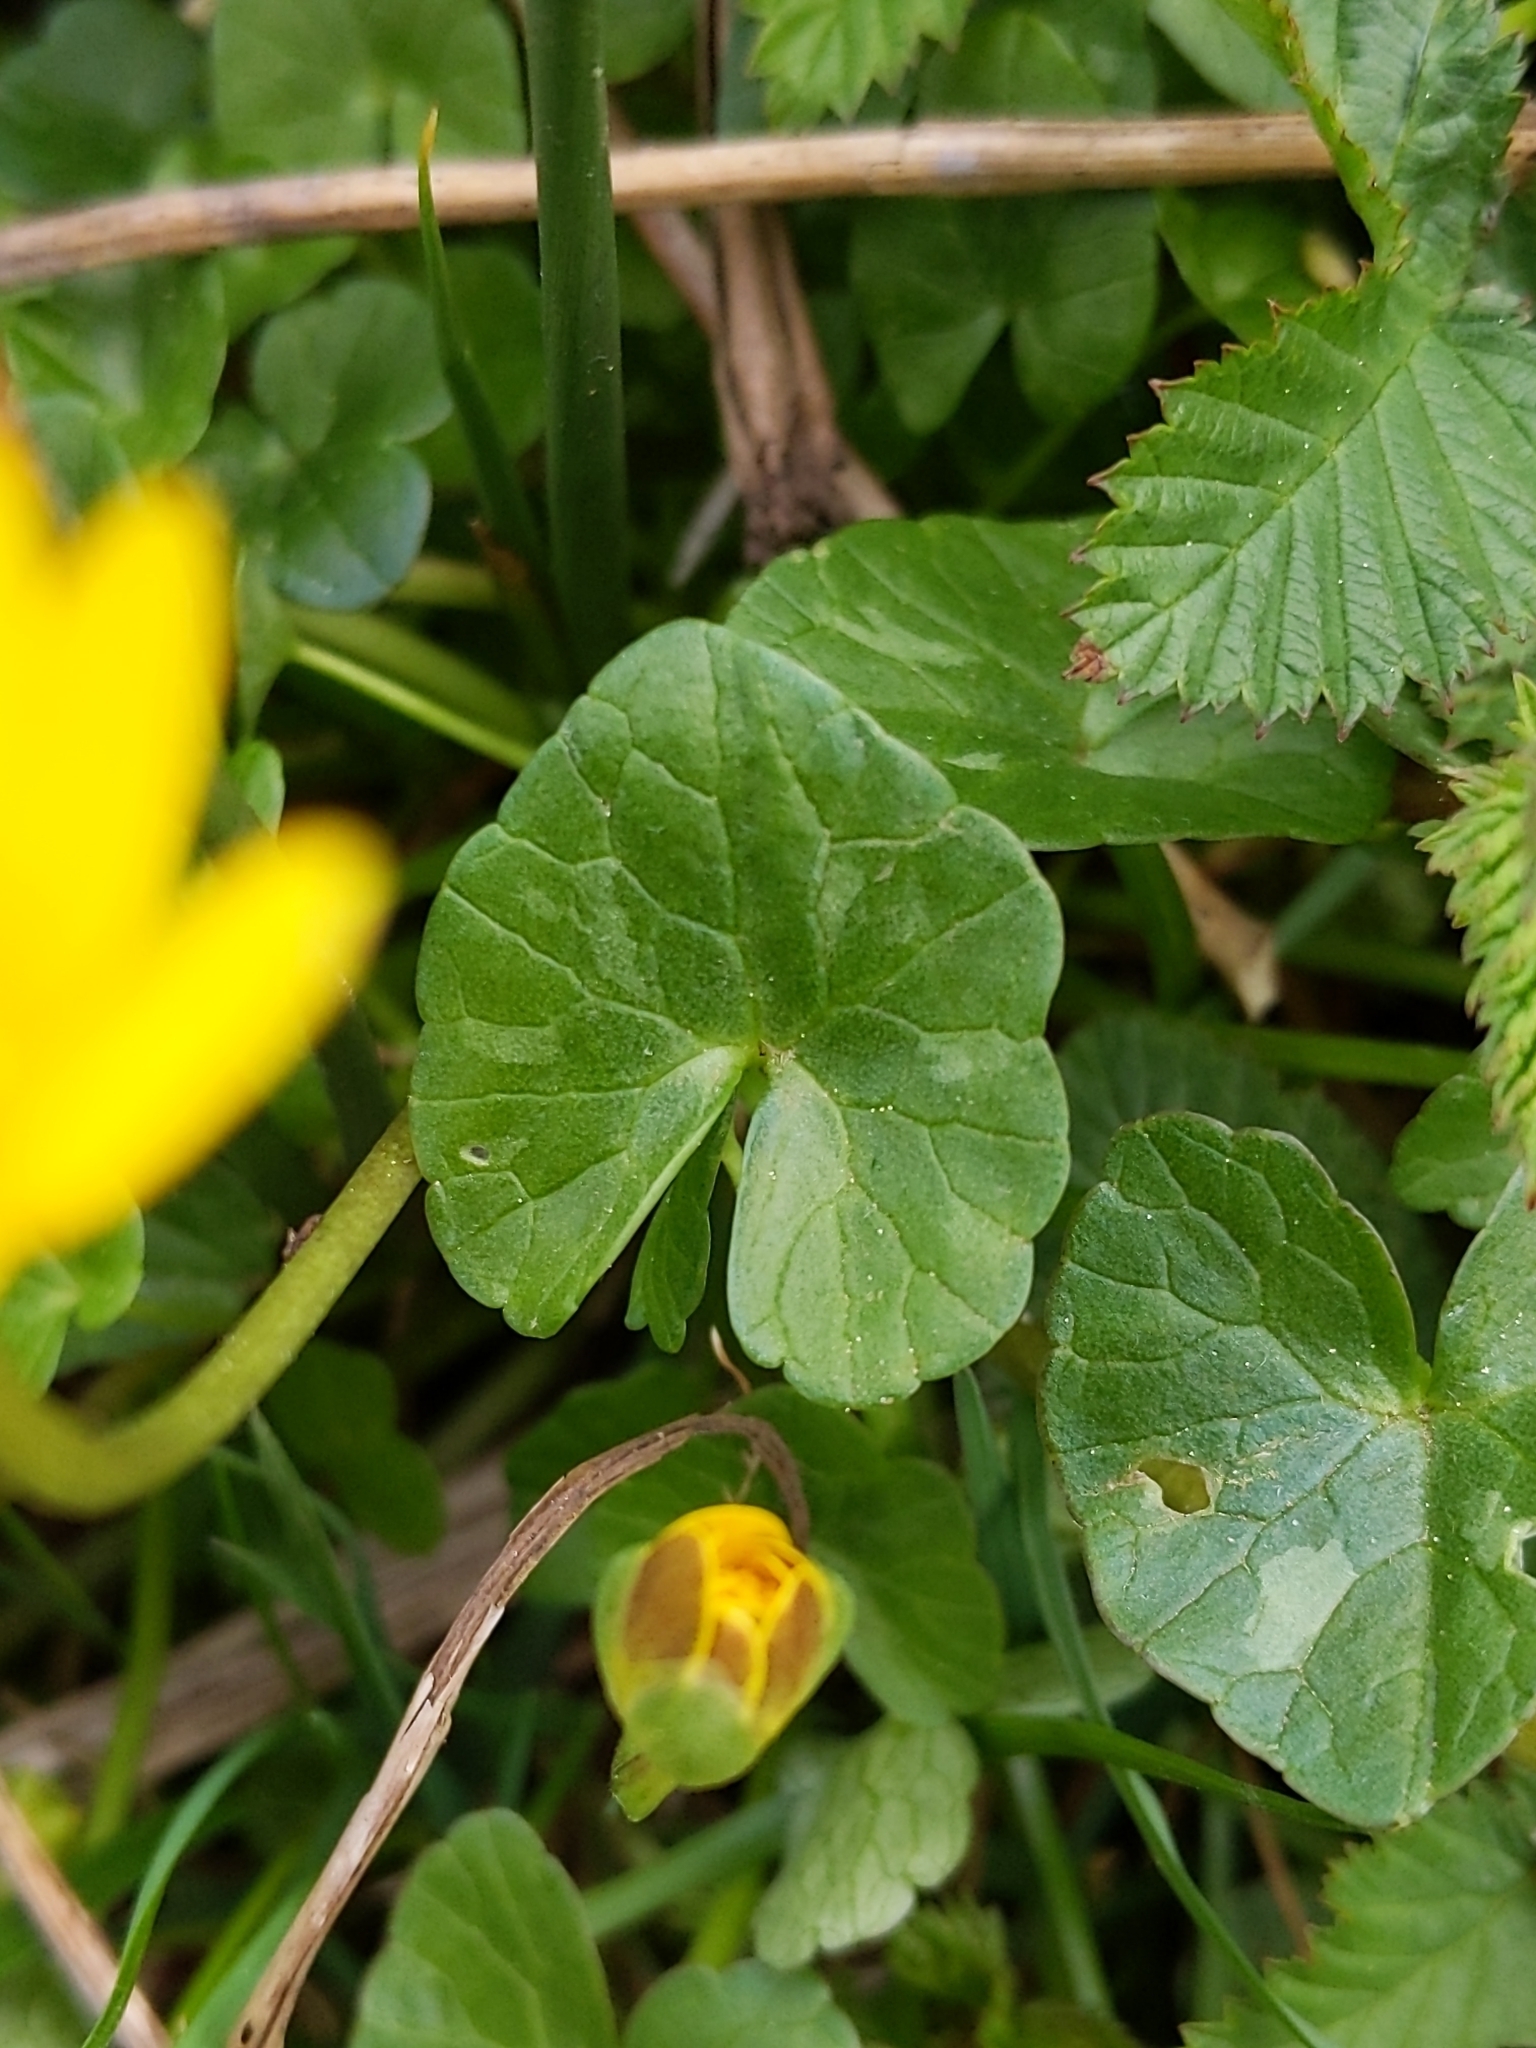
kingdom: Plantae
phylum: Tracheophyta
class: Magnoliopsida
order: Ranunculales
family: Ranunculaceae
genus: Ficaria
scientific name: Ficaria verna
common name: Lesser celandine
